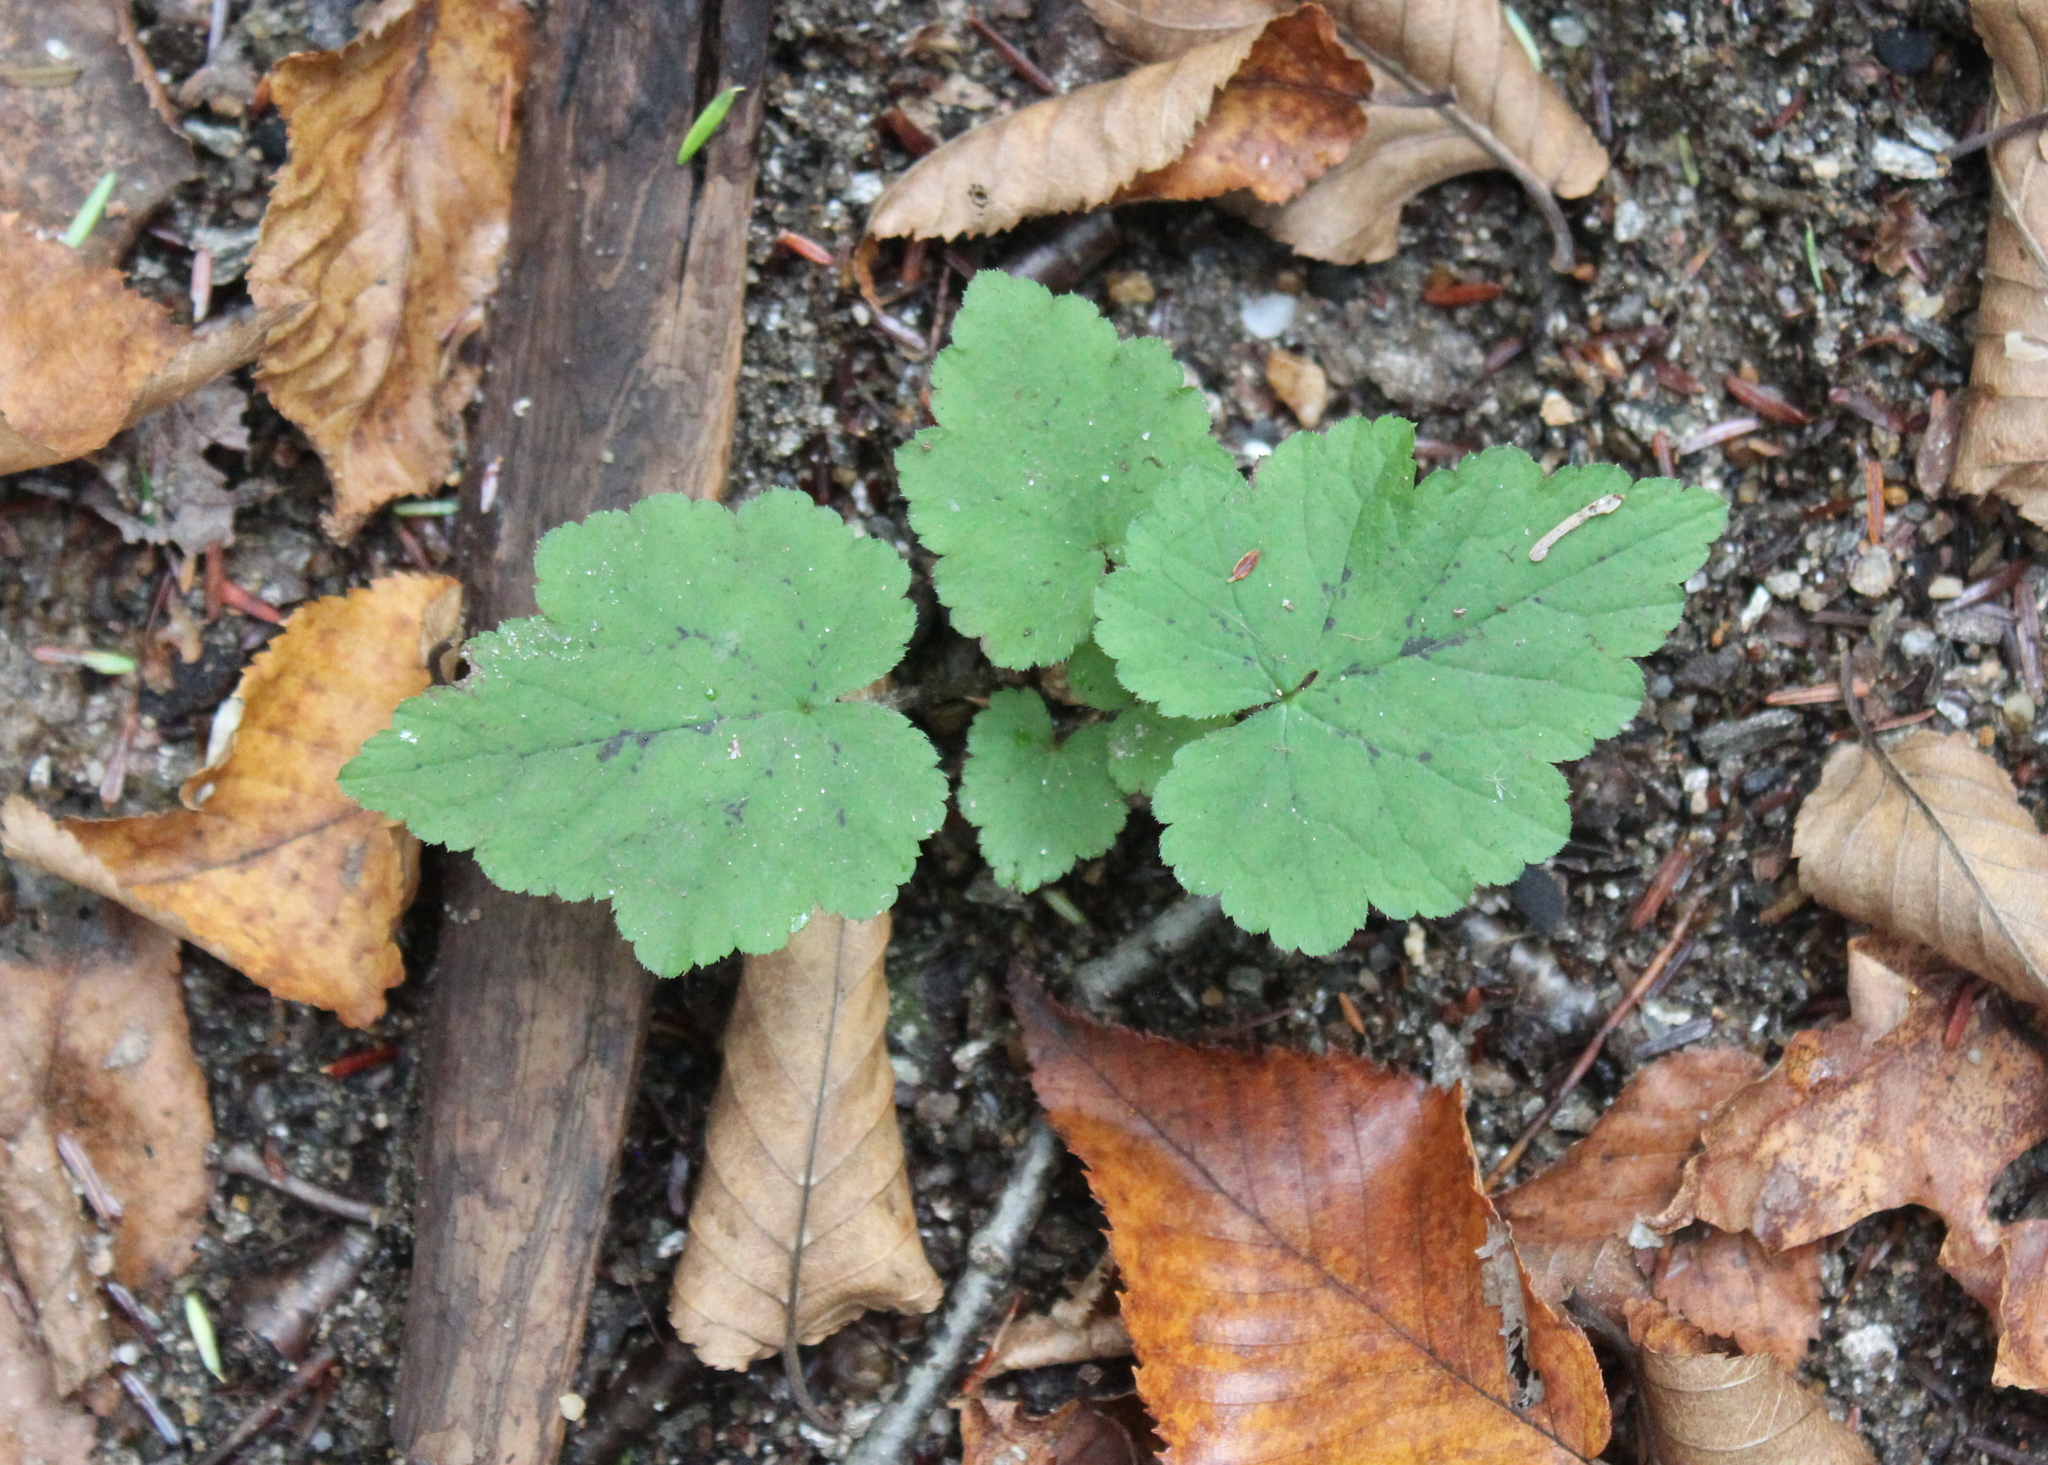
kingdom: Plantae
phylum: Tracheophyta
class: Magnoliopsida
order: Saxifragales
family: Saxifragaceae
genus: Tiarella
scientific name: Tiarella stolonifera
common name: Stoloniferous foamflower
